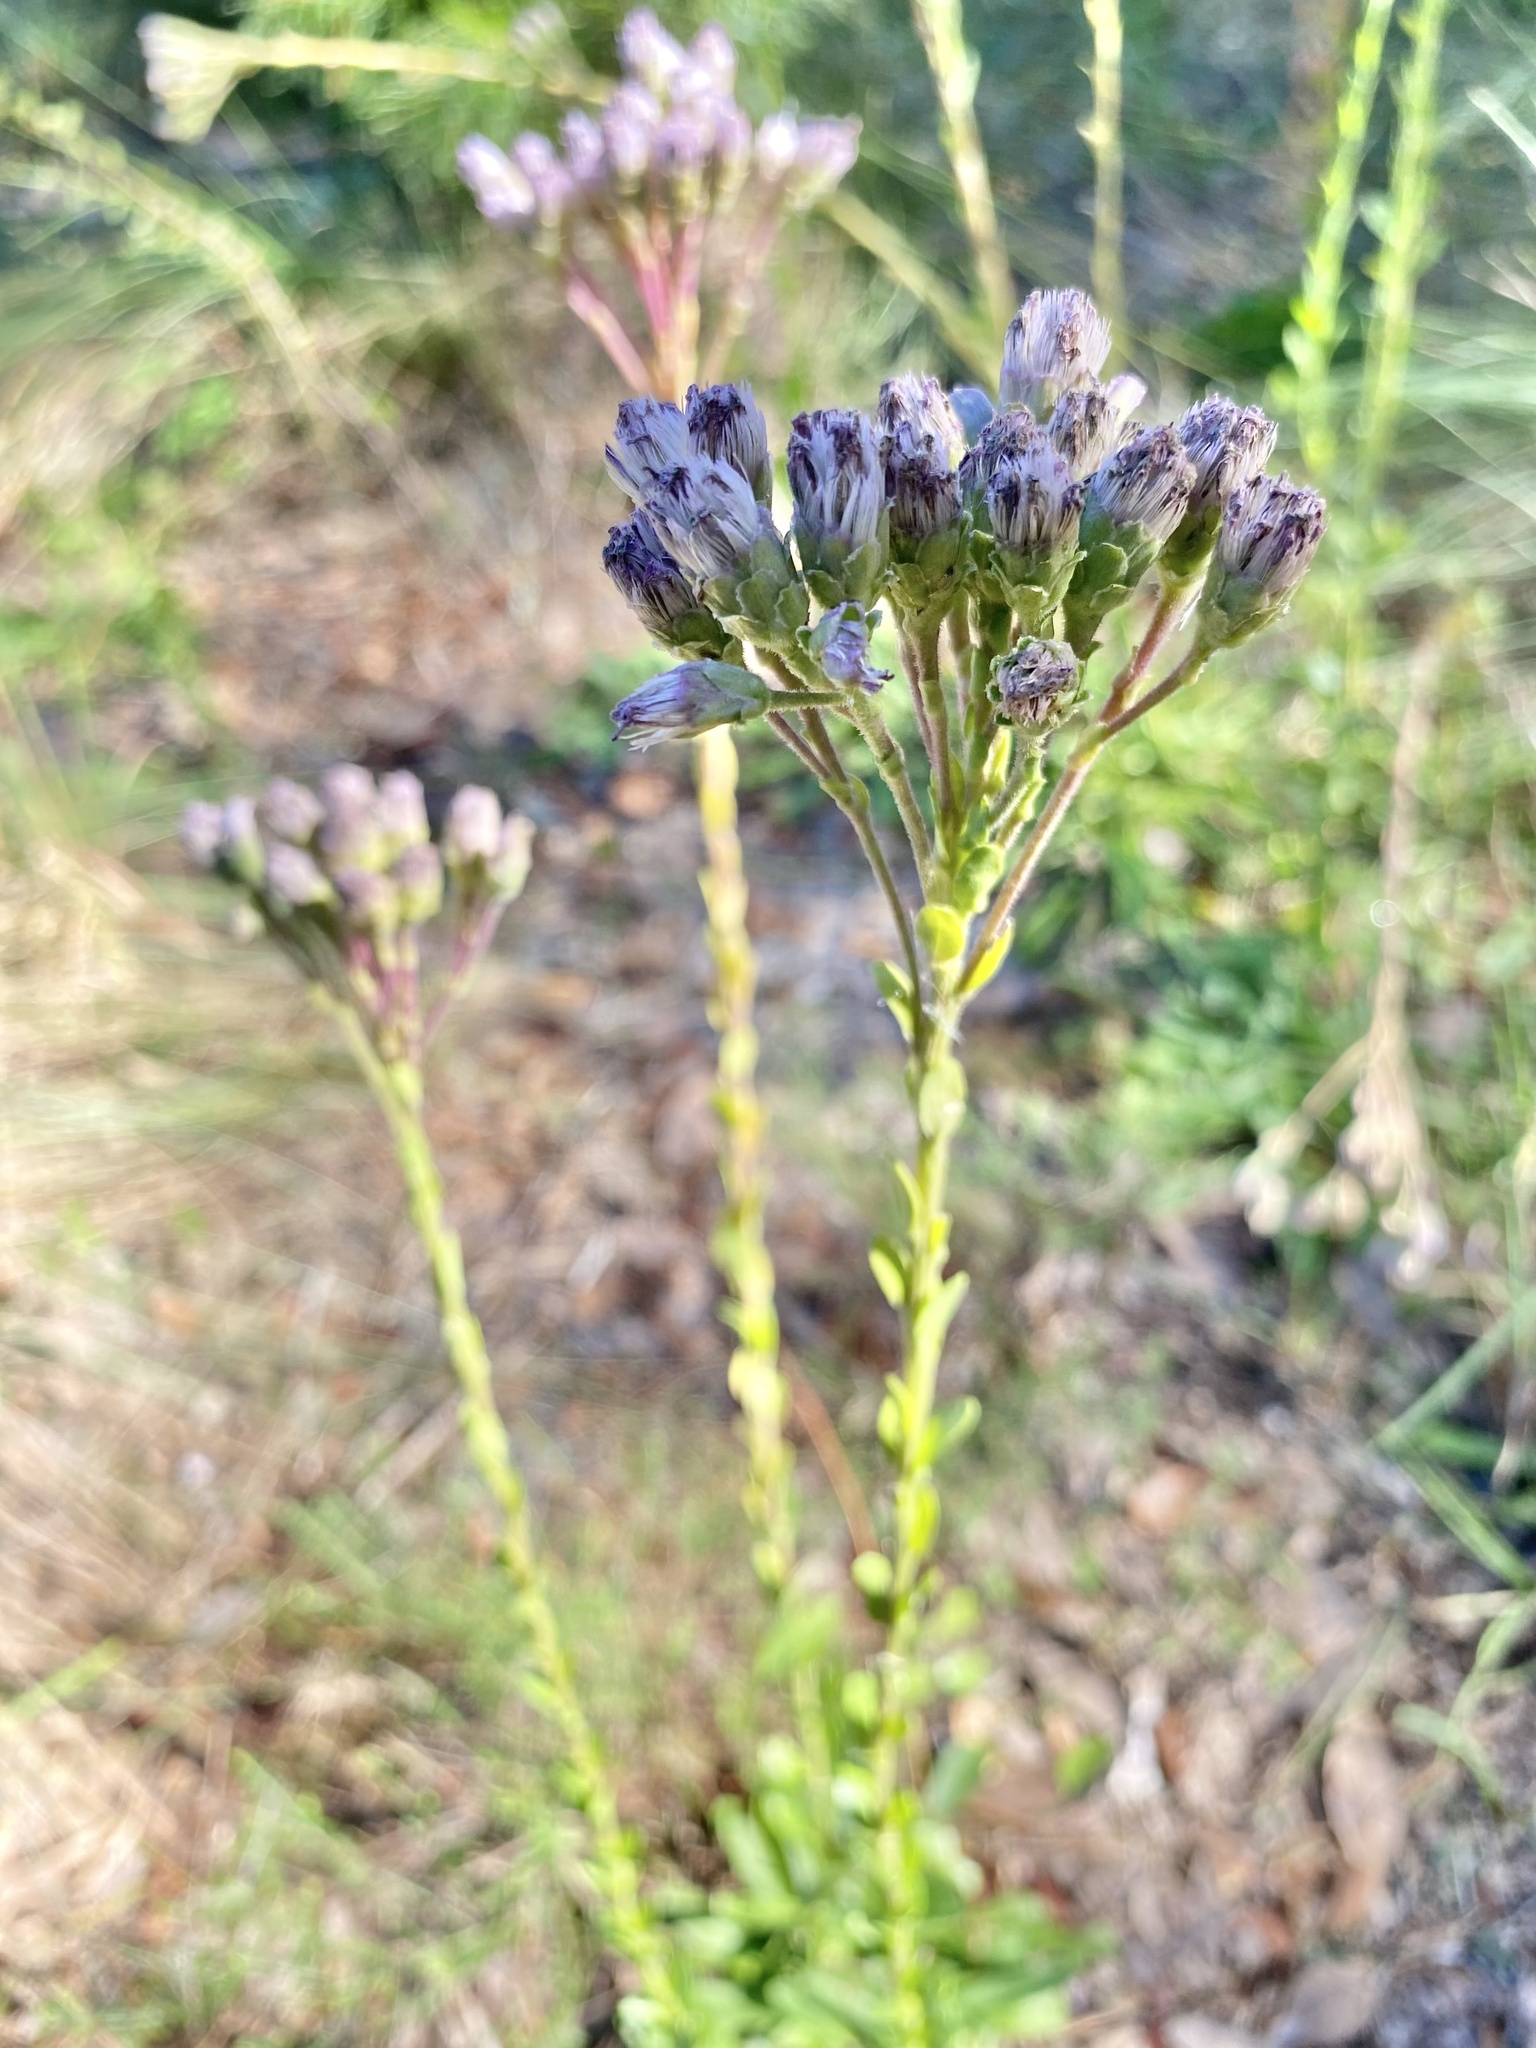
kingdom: Plantae
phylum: Tracheophyta
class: Magnoliopsida
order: Asterales
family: Asteraceae
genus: Carphephorus
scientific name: Carphephorus corymbosus
